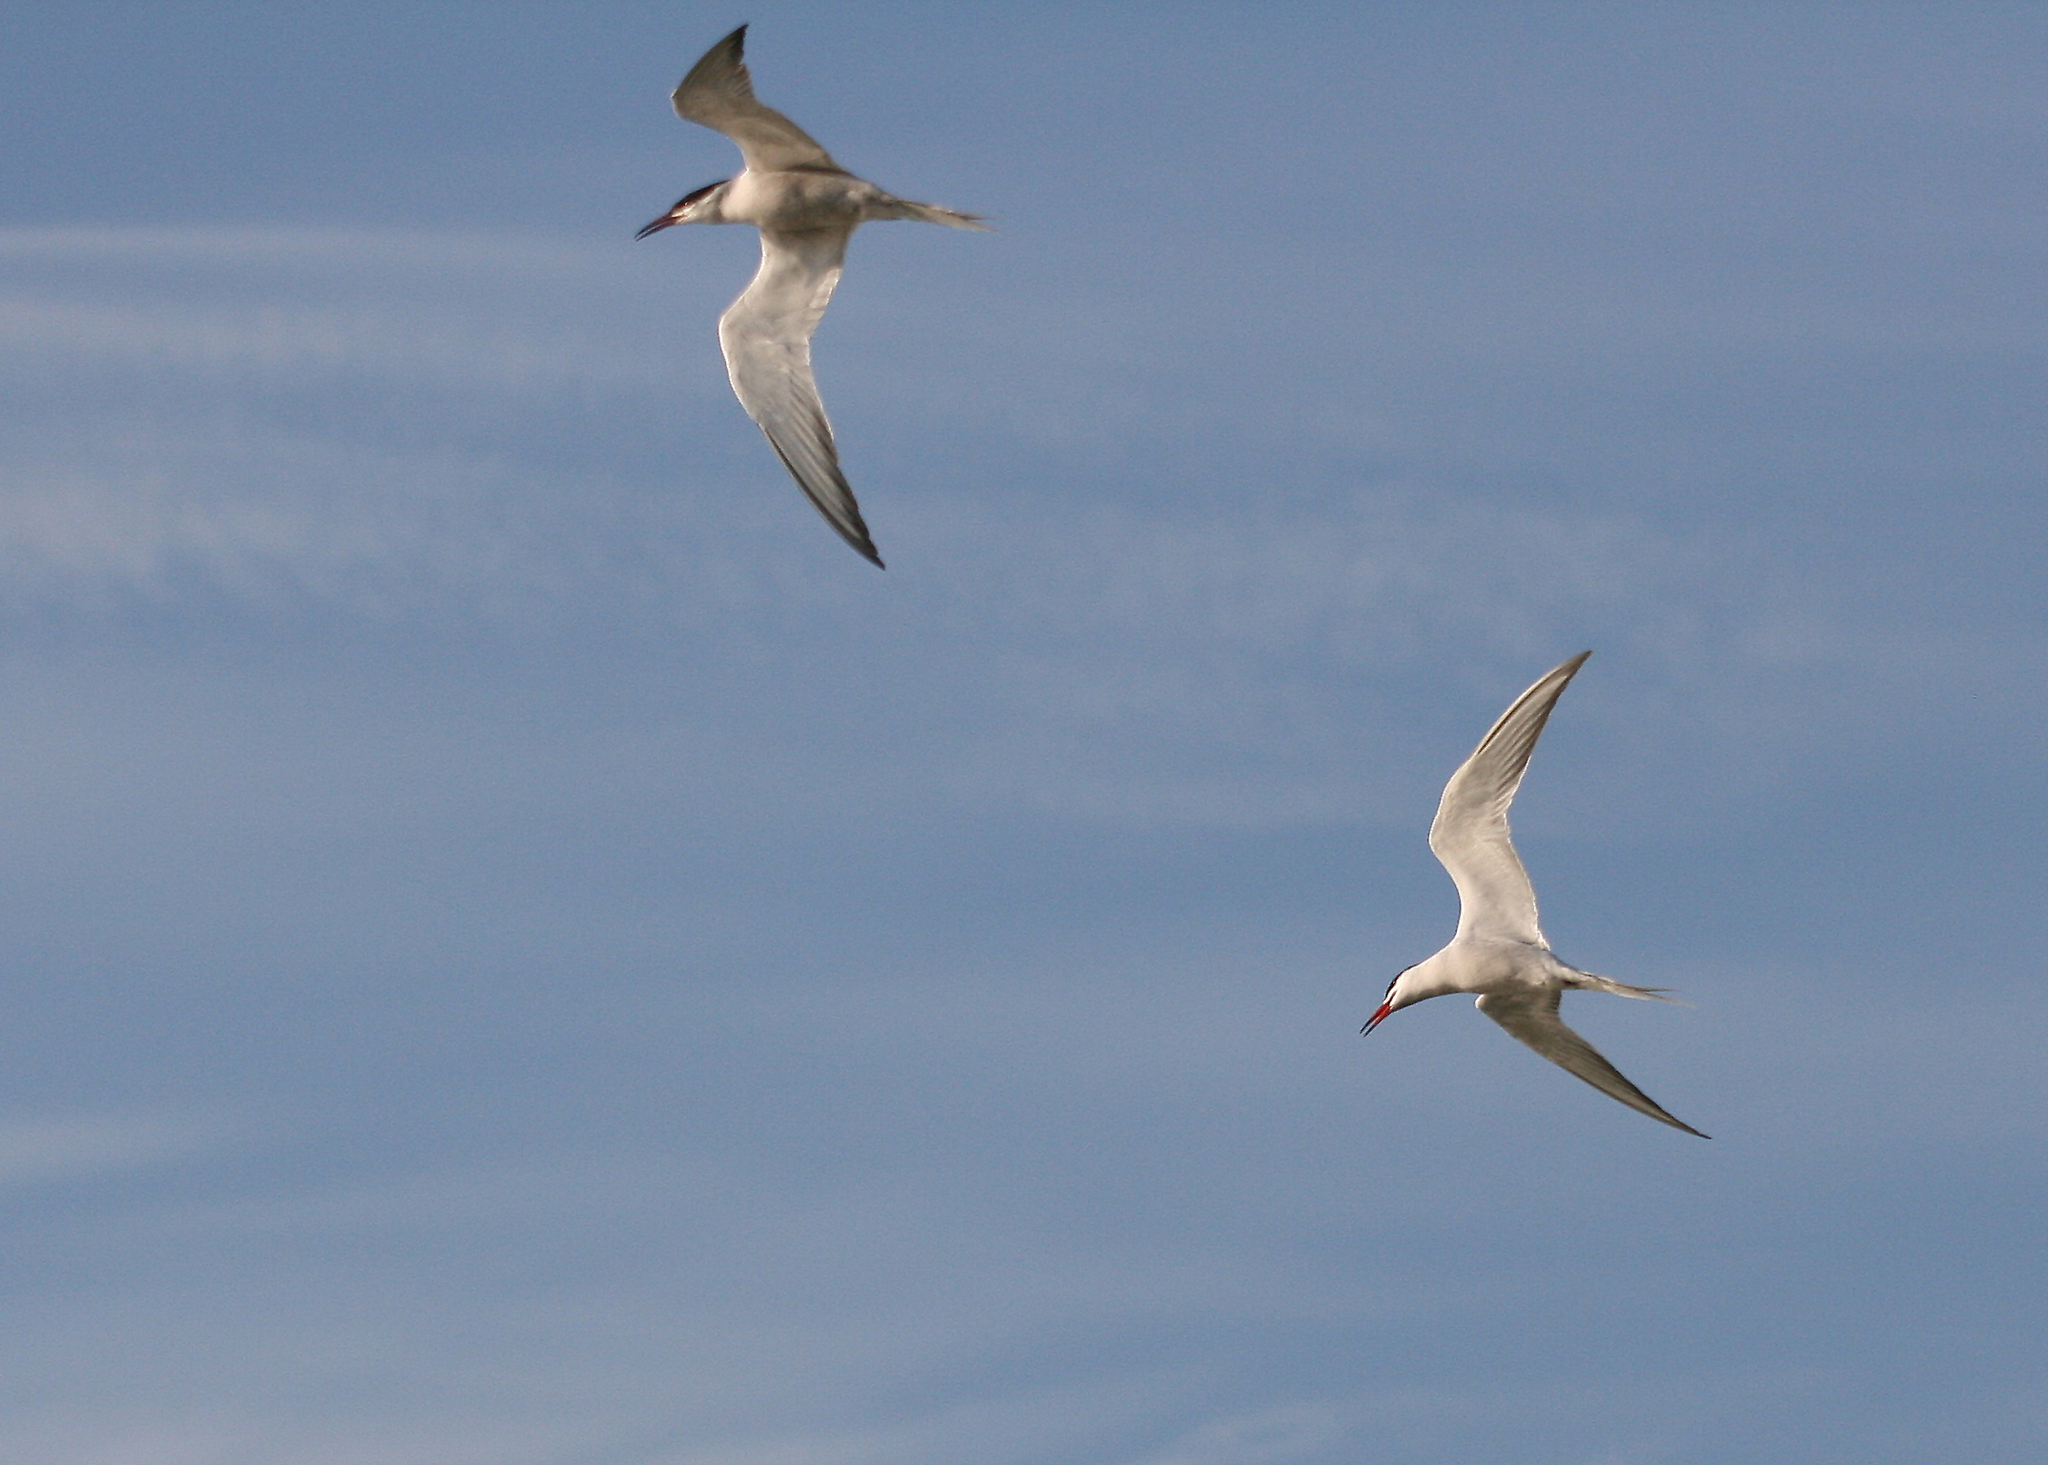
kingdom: Animalia
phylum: Chordata
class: Aves
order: Charadriiformes
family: Laridae
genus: Sterna
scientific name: Sterna hirundo
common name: Common tern
